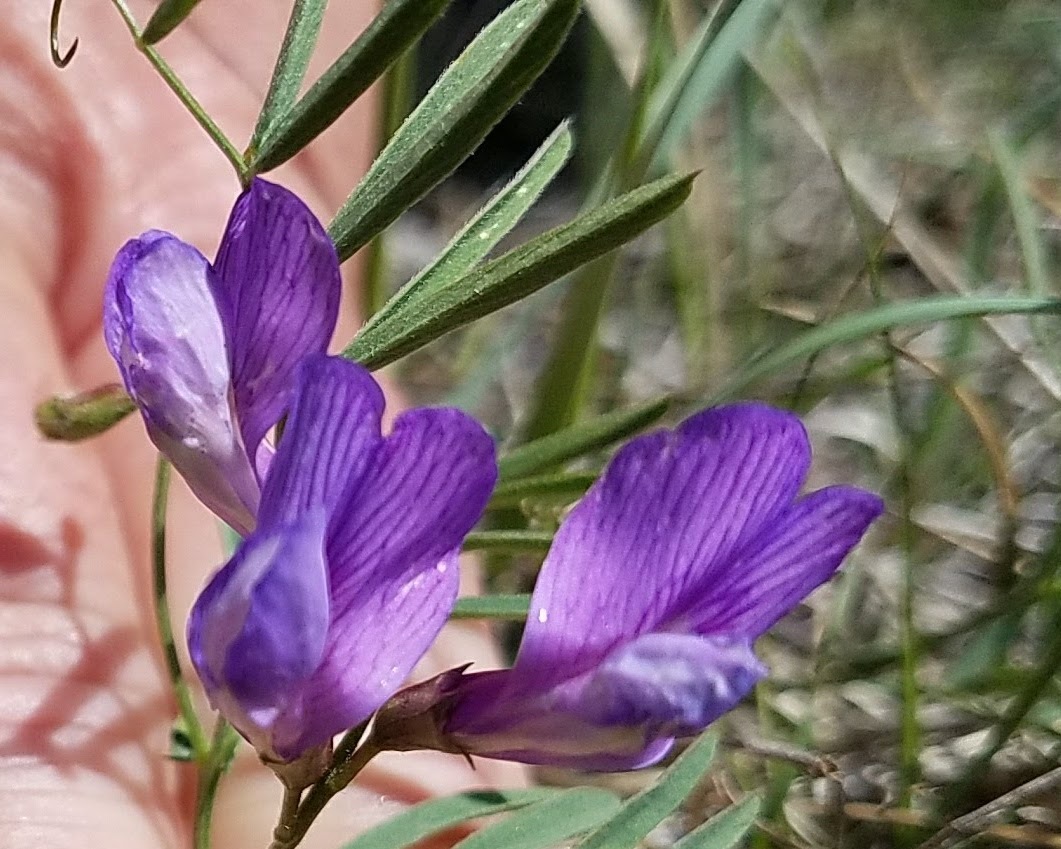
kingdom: Plantae
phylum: Tracheophyta
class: Magnoliopsida
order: Fabales
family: Fabaceae
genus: Vicia
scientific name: Vicia americana
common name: American vetch
